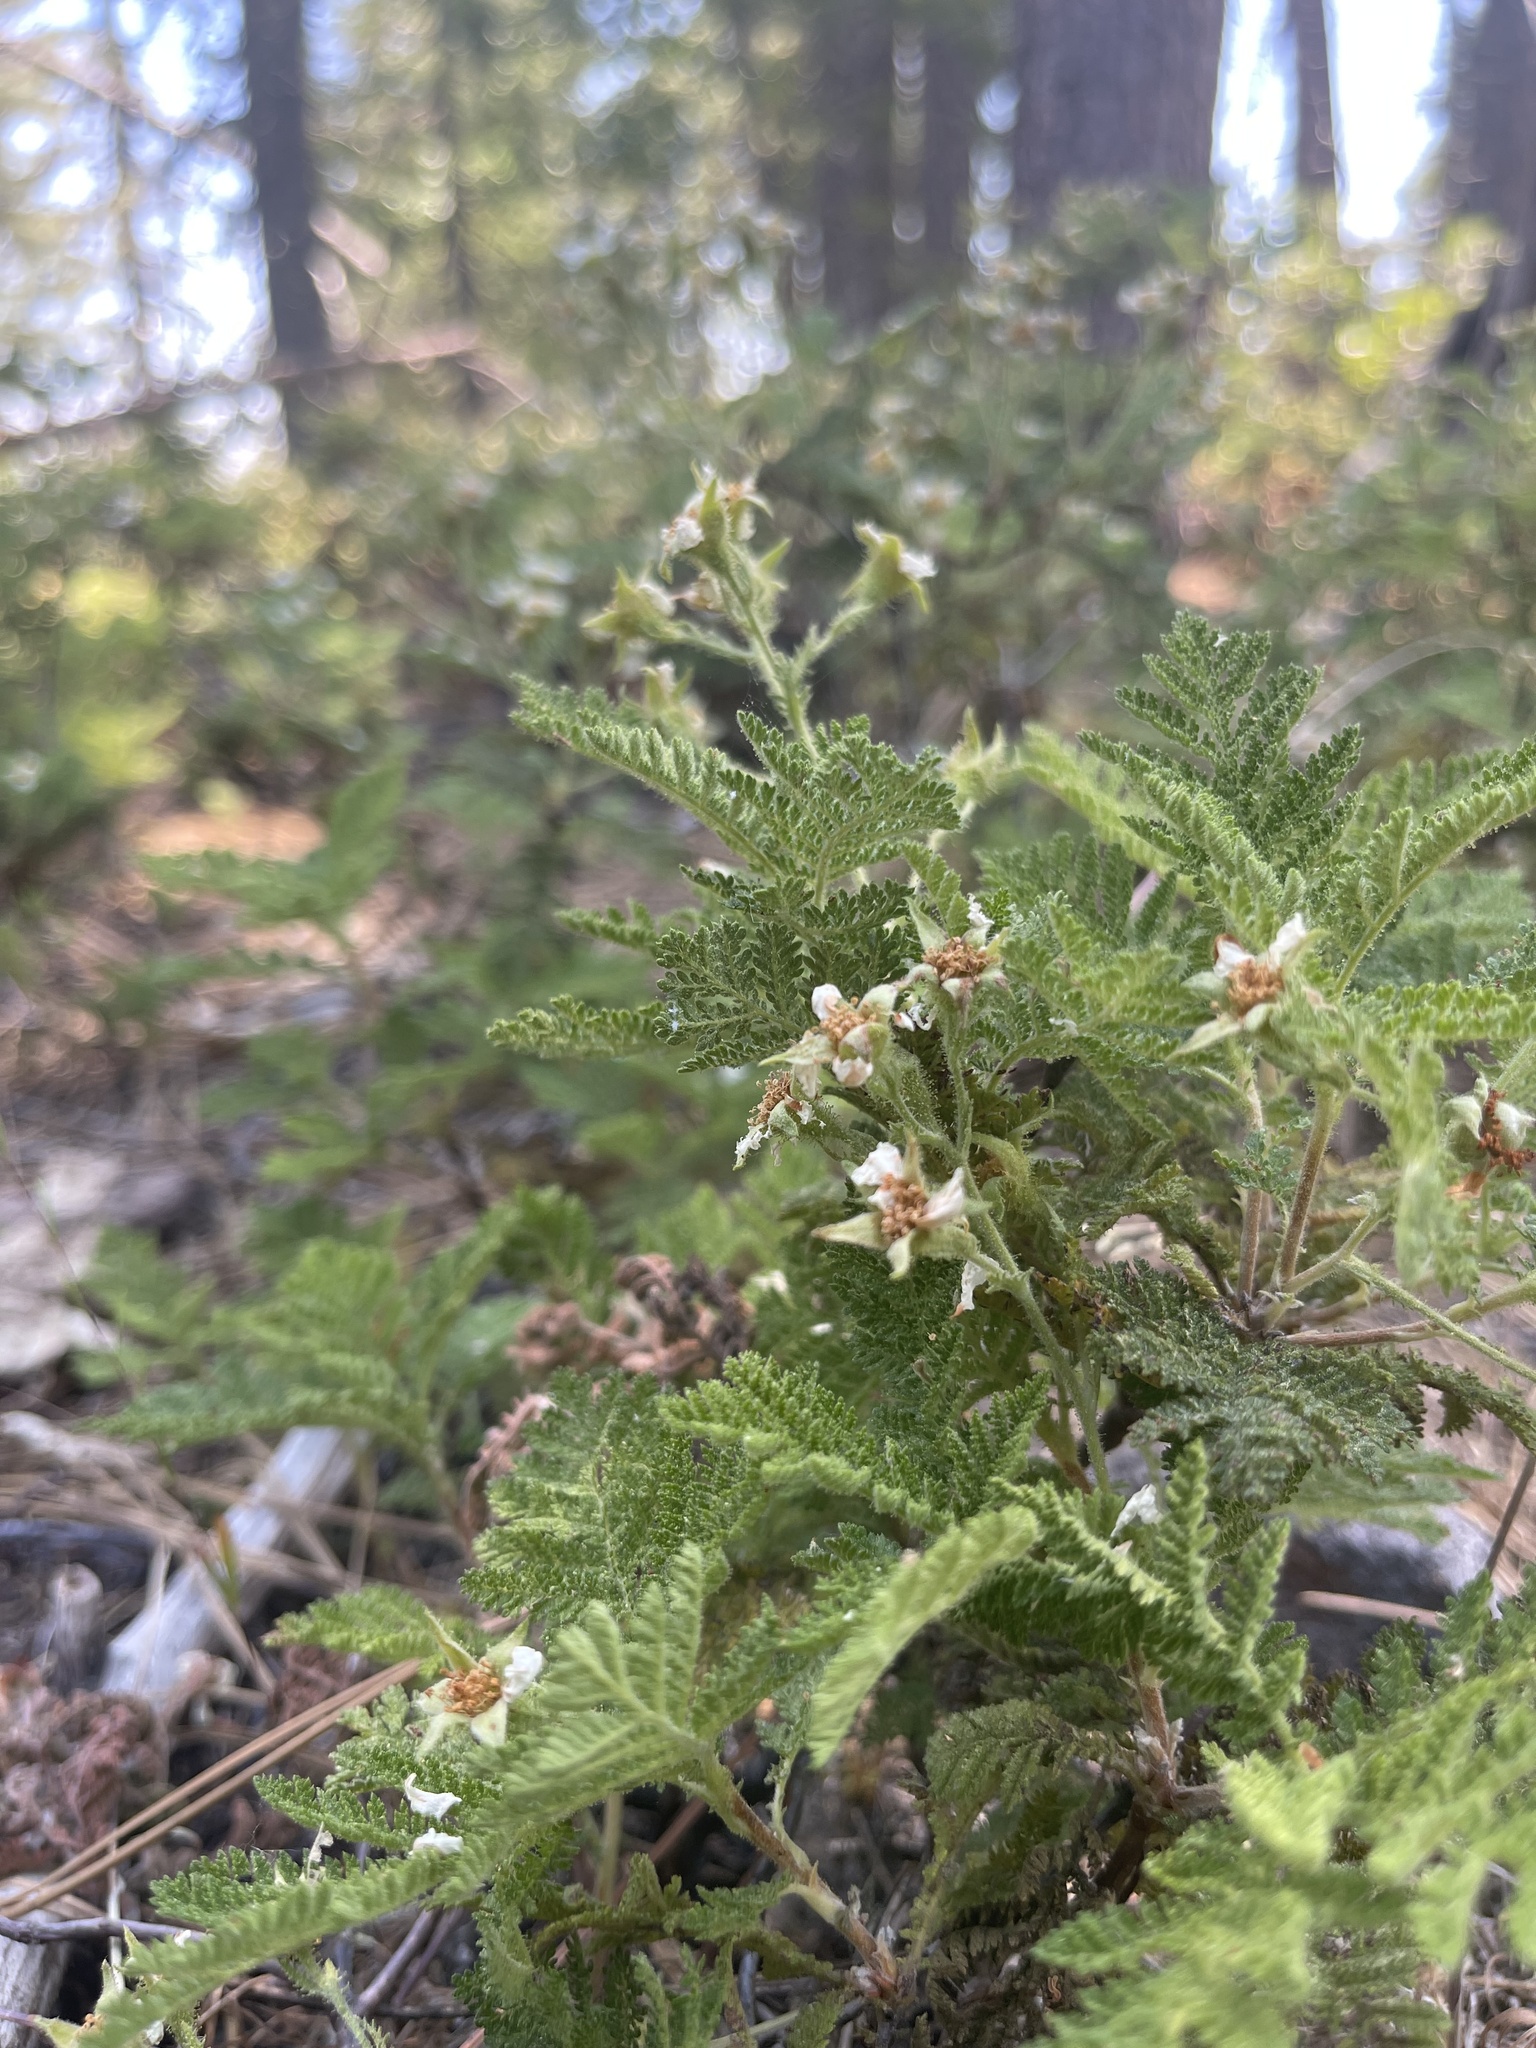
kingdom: Plantae
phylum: Tracheophyta
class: Magnoliopsida
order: Rosales
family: Rosaceae
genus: Chamaebatia
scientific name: Chamaebatia foliolosa
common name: Mountain misery
